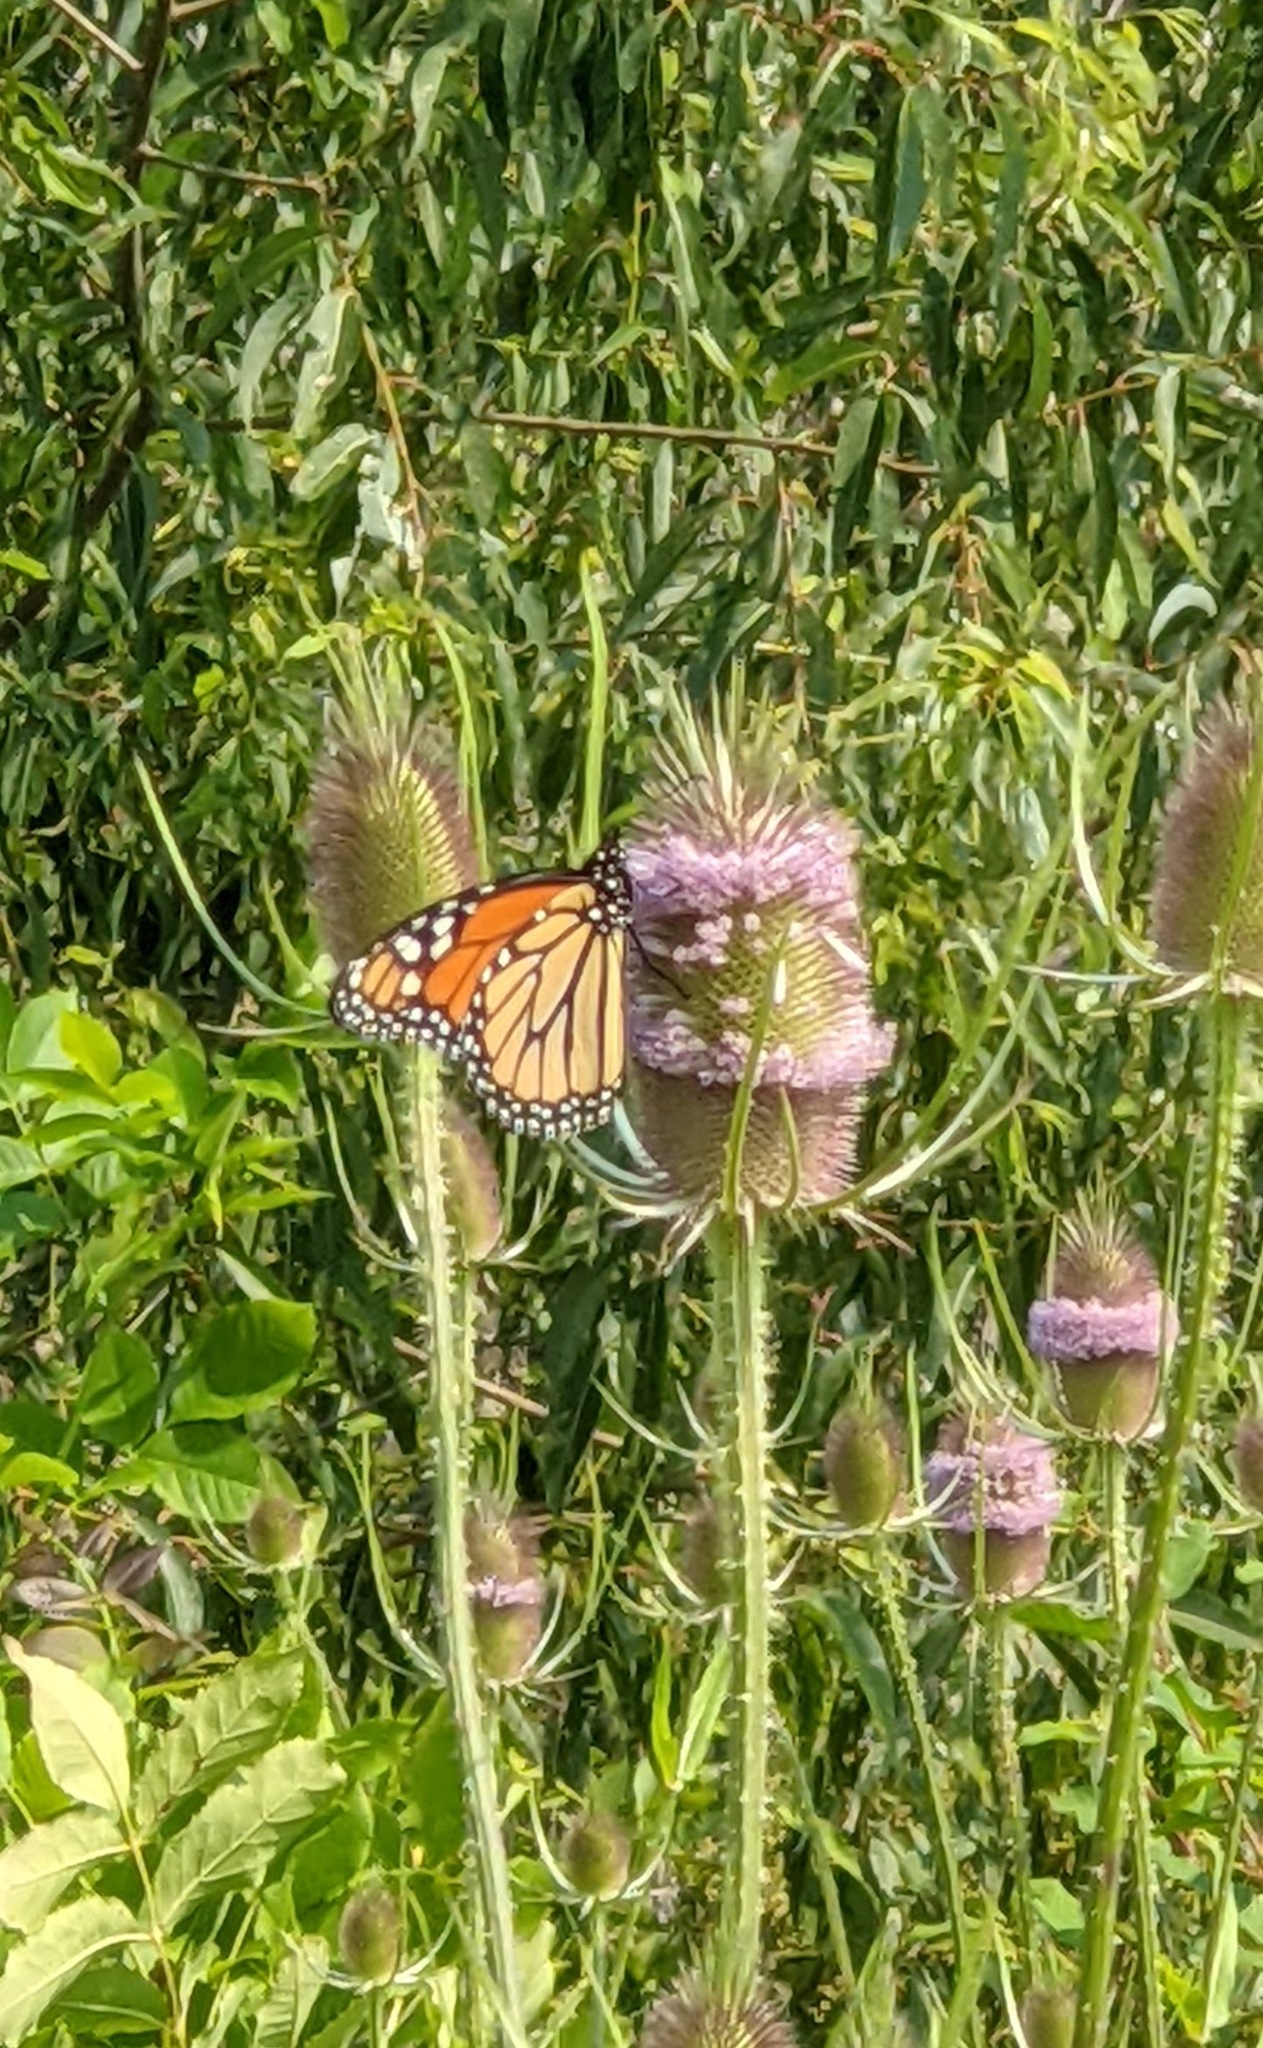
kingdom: Animalia
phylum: Arthropoda
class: Insecta
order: Lepidoptera
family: Nymphalidae
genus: Danaus
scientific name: Danaus plexippus
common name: Monarch
